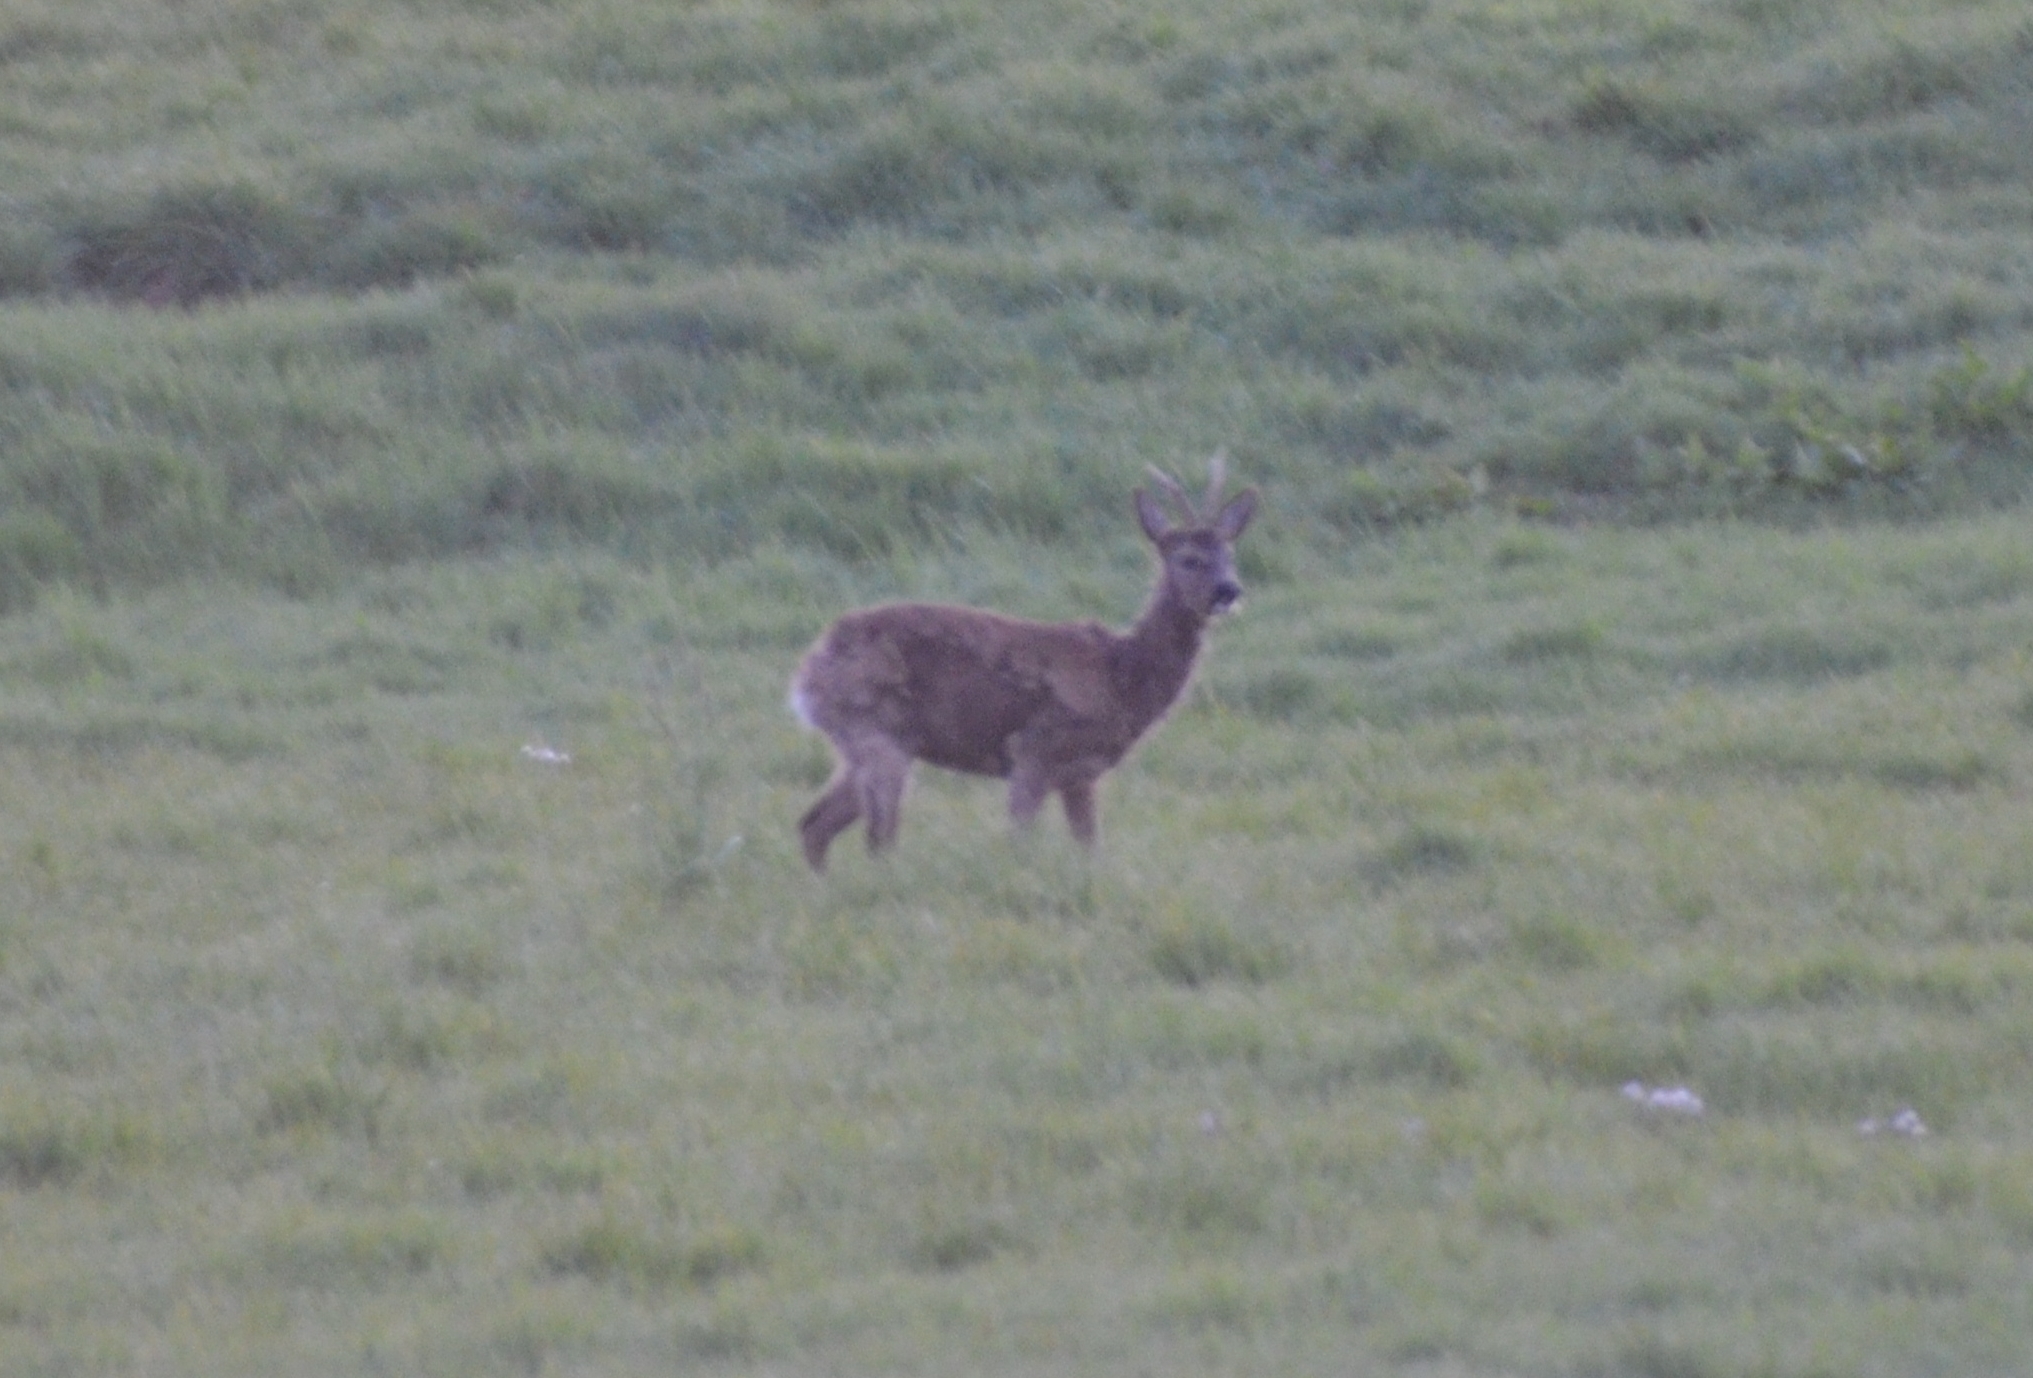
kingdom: Animalia
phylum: Chordata
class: Mammalia
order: Artiodactyla
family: Cervidae
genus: Capreolus
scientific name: Capreolus capreolus
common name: Western roe deer
